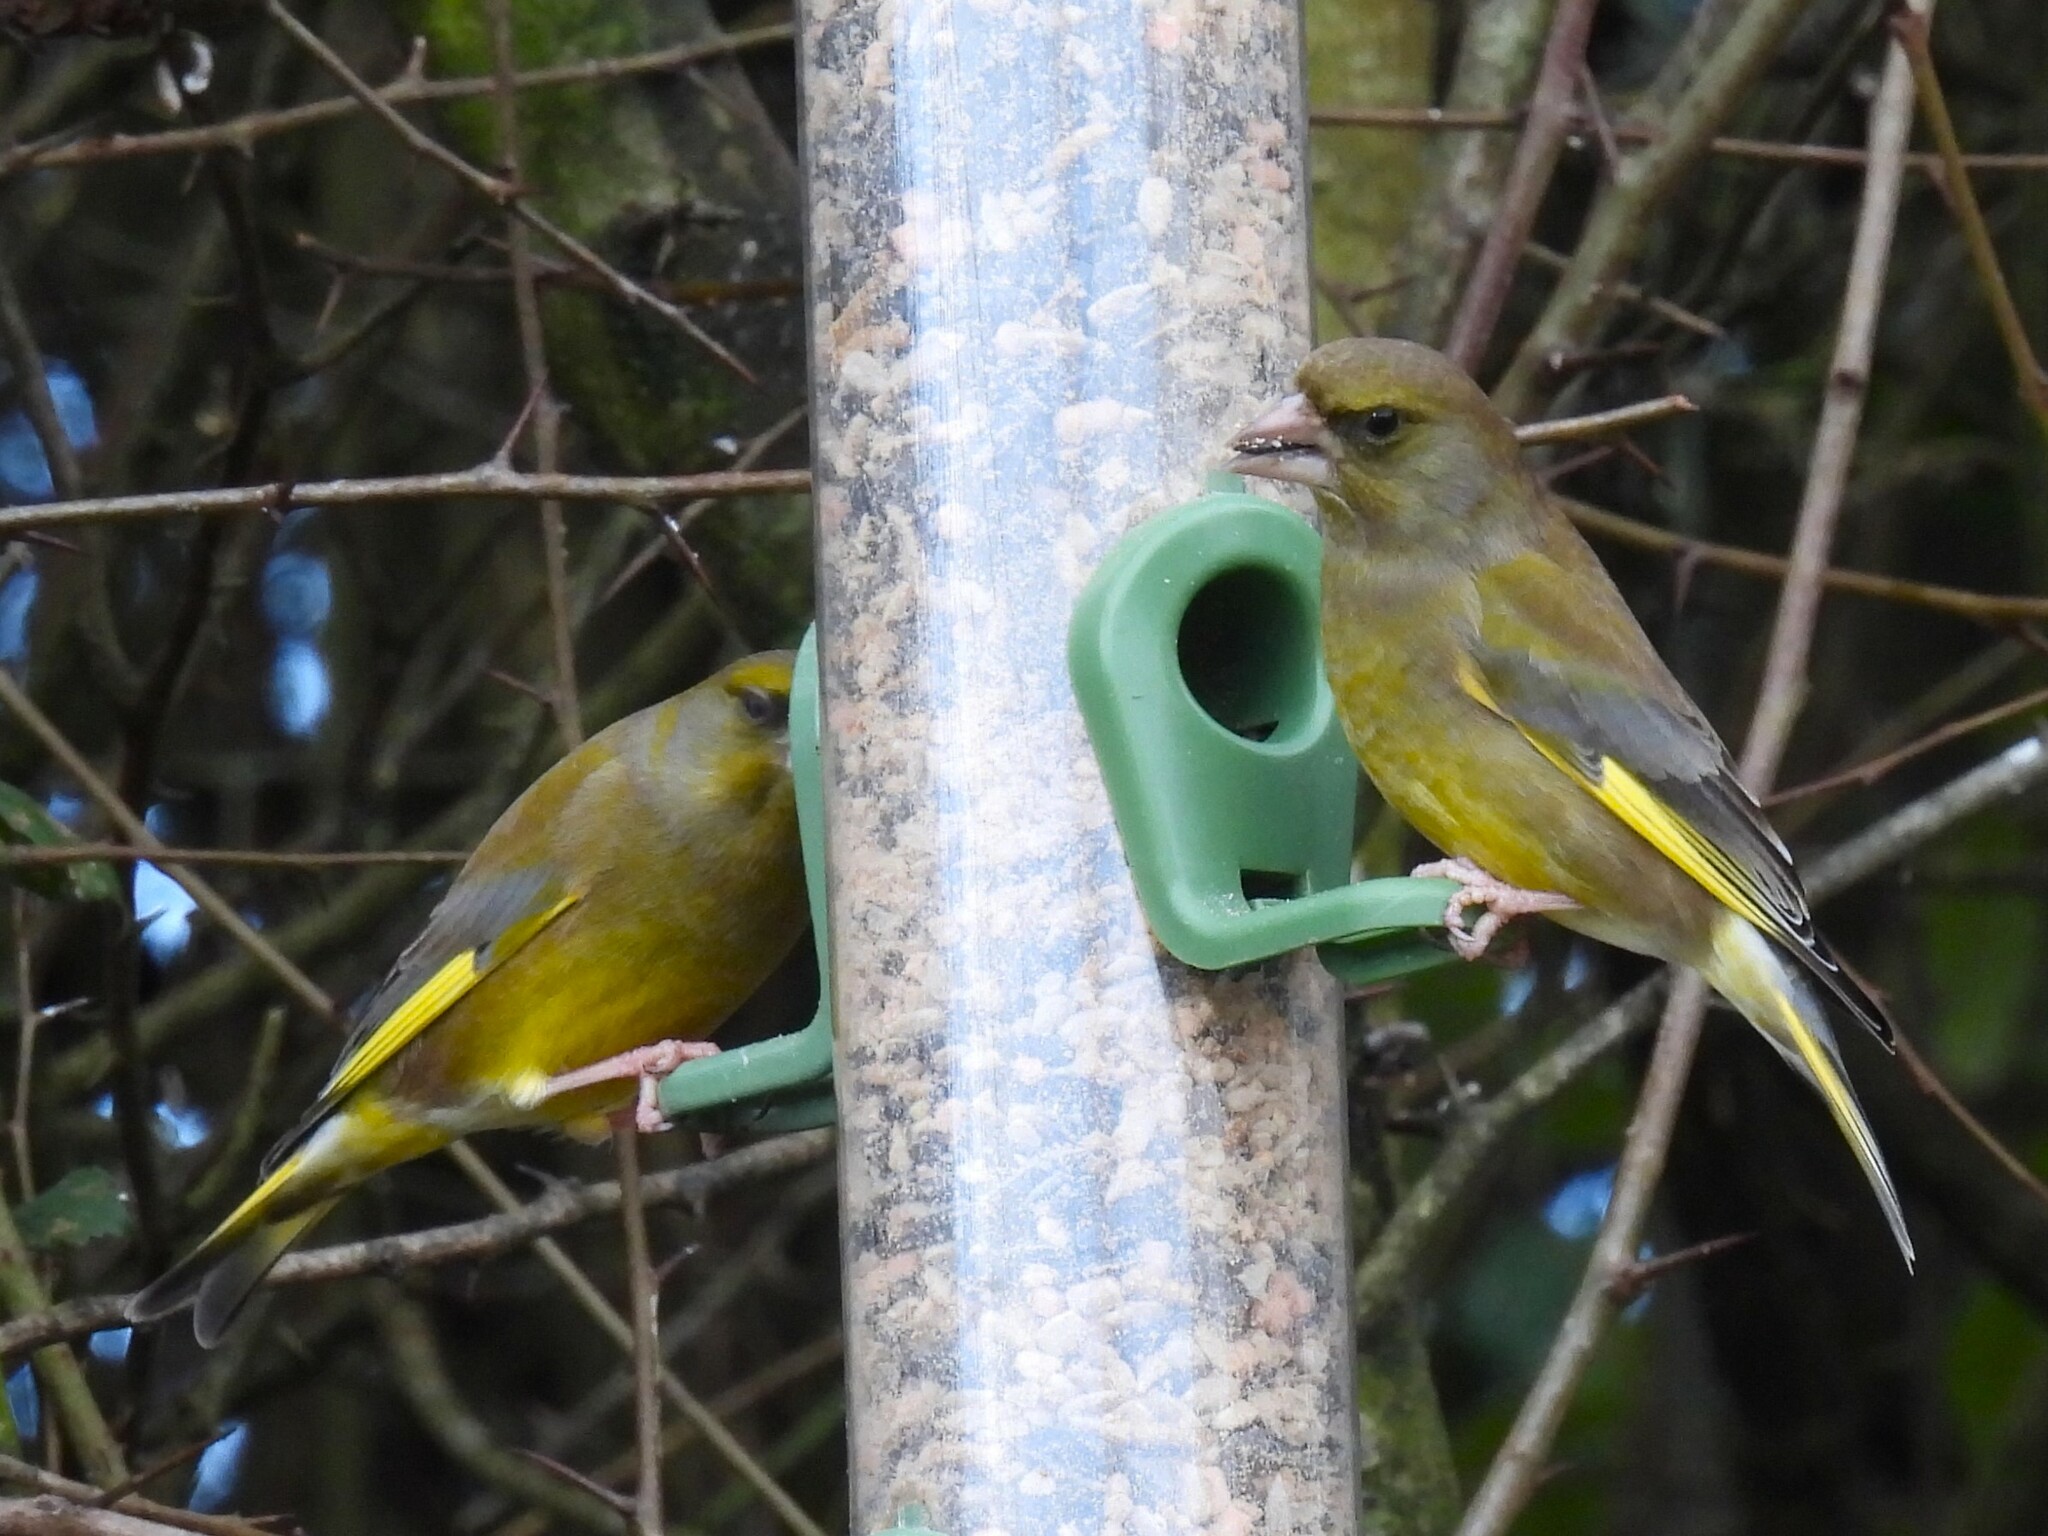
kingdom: Plantae
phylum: Tracheophyta
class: Liliopsida
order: Poales
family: Poaceae
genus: Chloris
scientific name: Chloris chloris
